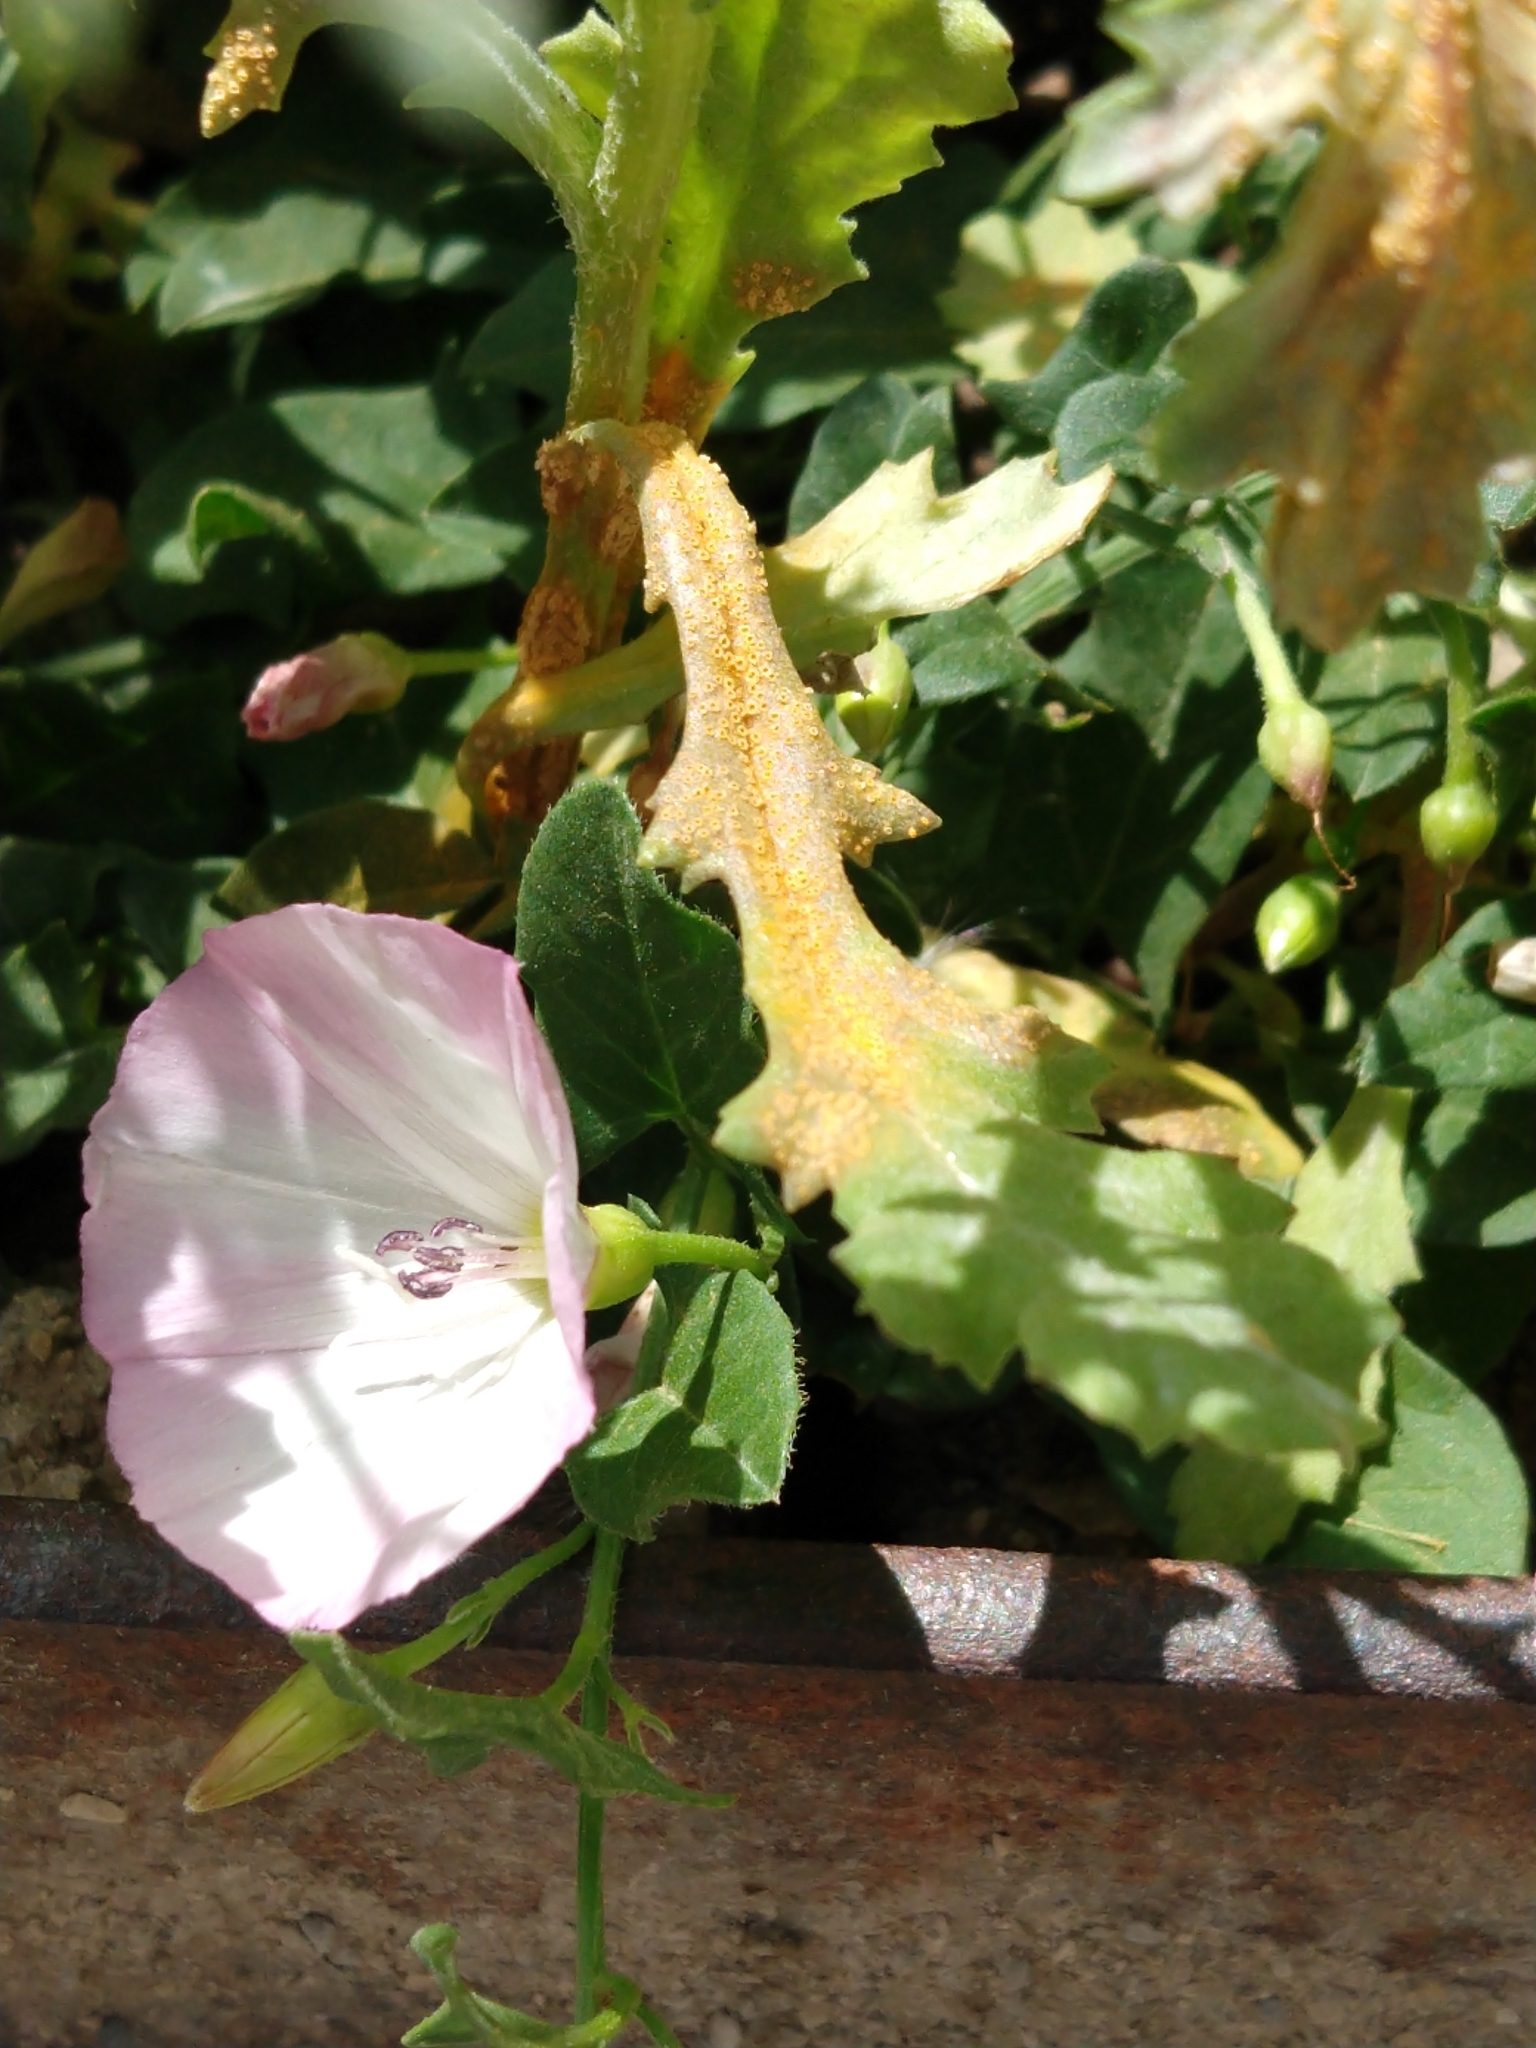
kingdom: Fungi
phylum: Basidiomycota
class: Pucciniomycetes
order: Pucciniales
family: Pucciniaceae
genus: Puccinia
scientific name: Puccinia lagenophorae
